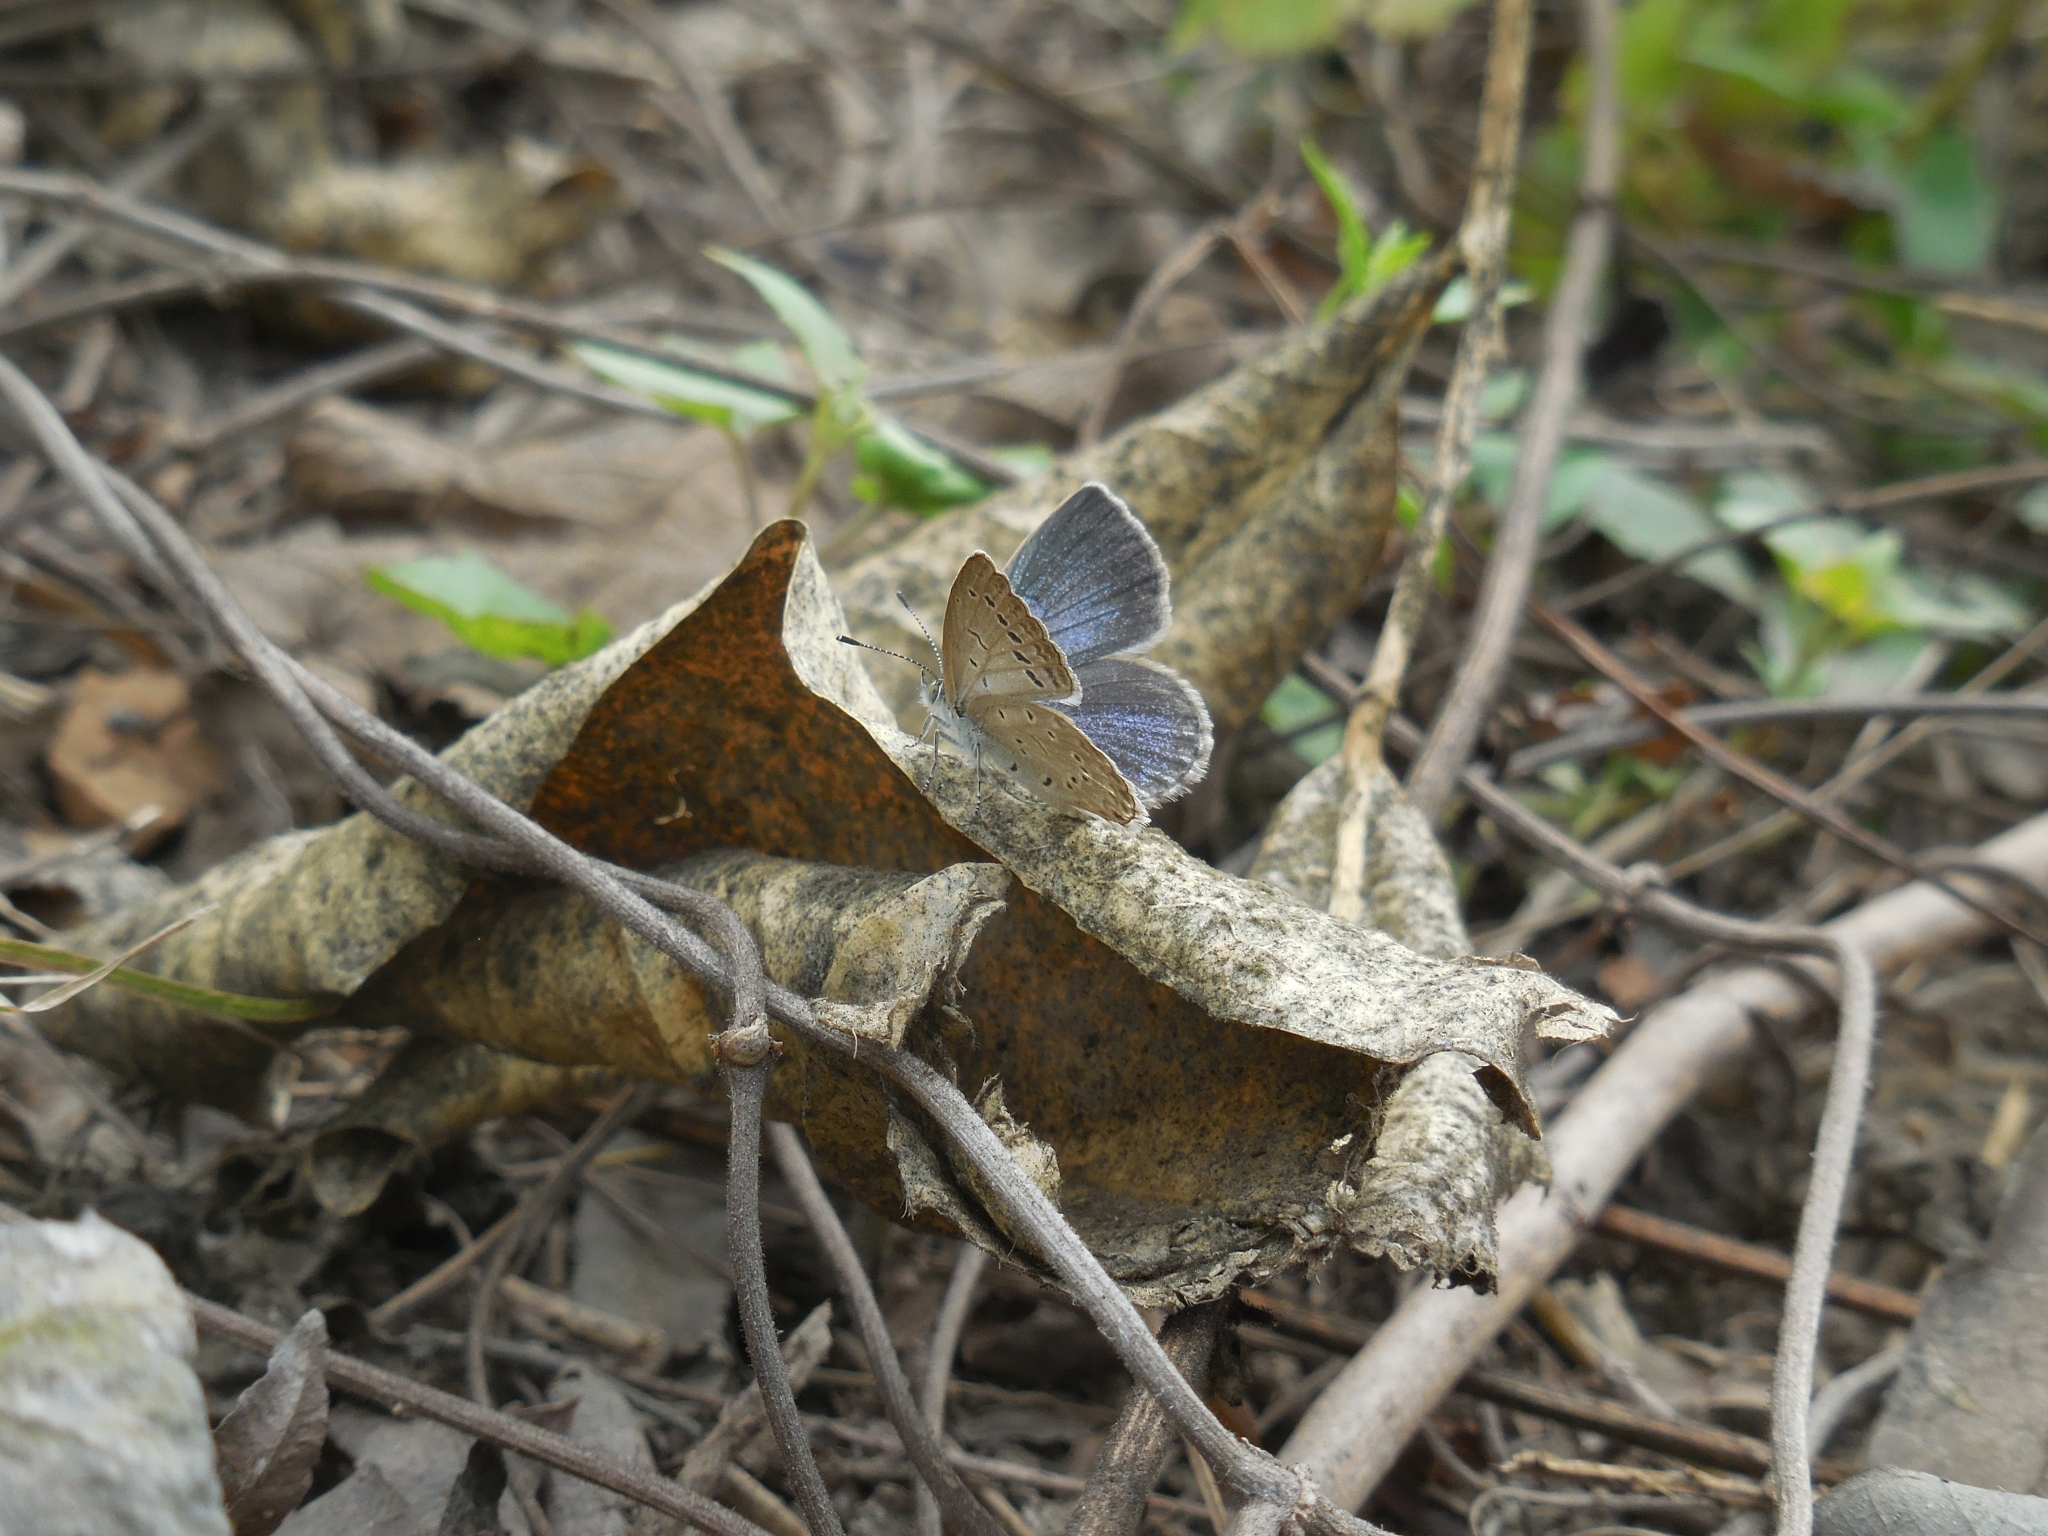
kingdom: Animalia
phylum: Arthropoda
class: Insecta
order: Lepidoptera
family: Lycaenidae
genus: Pseudozizeeria
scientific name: Pseudozizeeria maha
